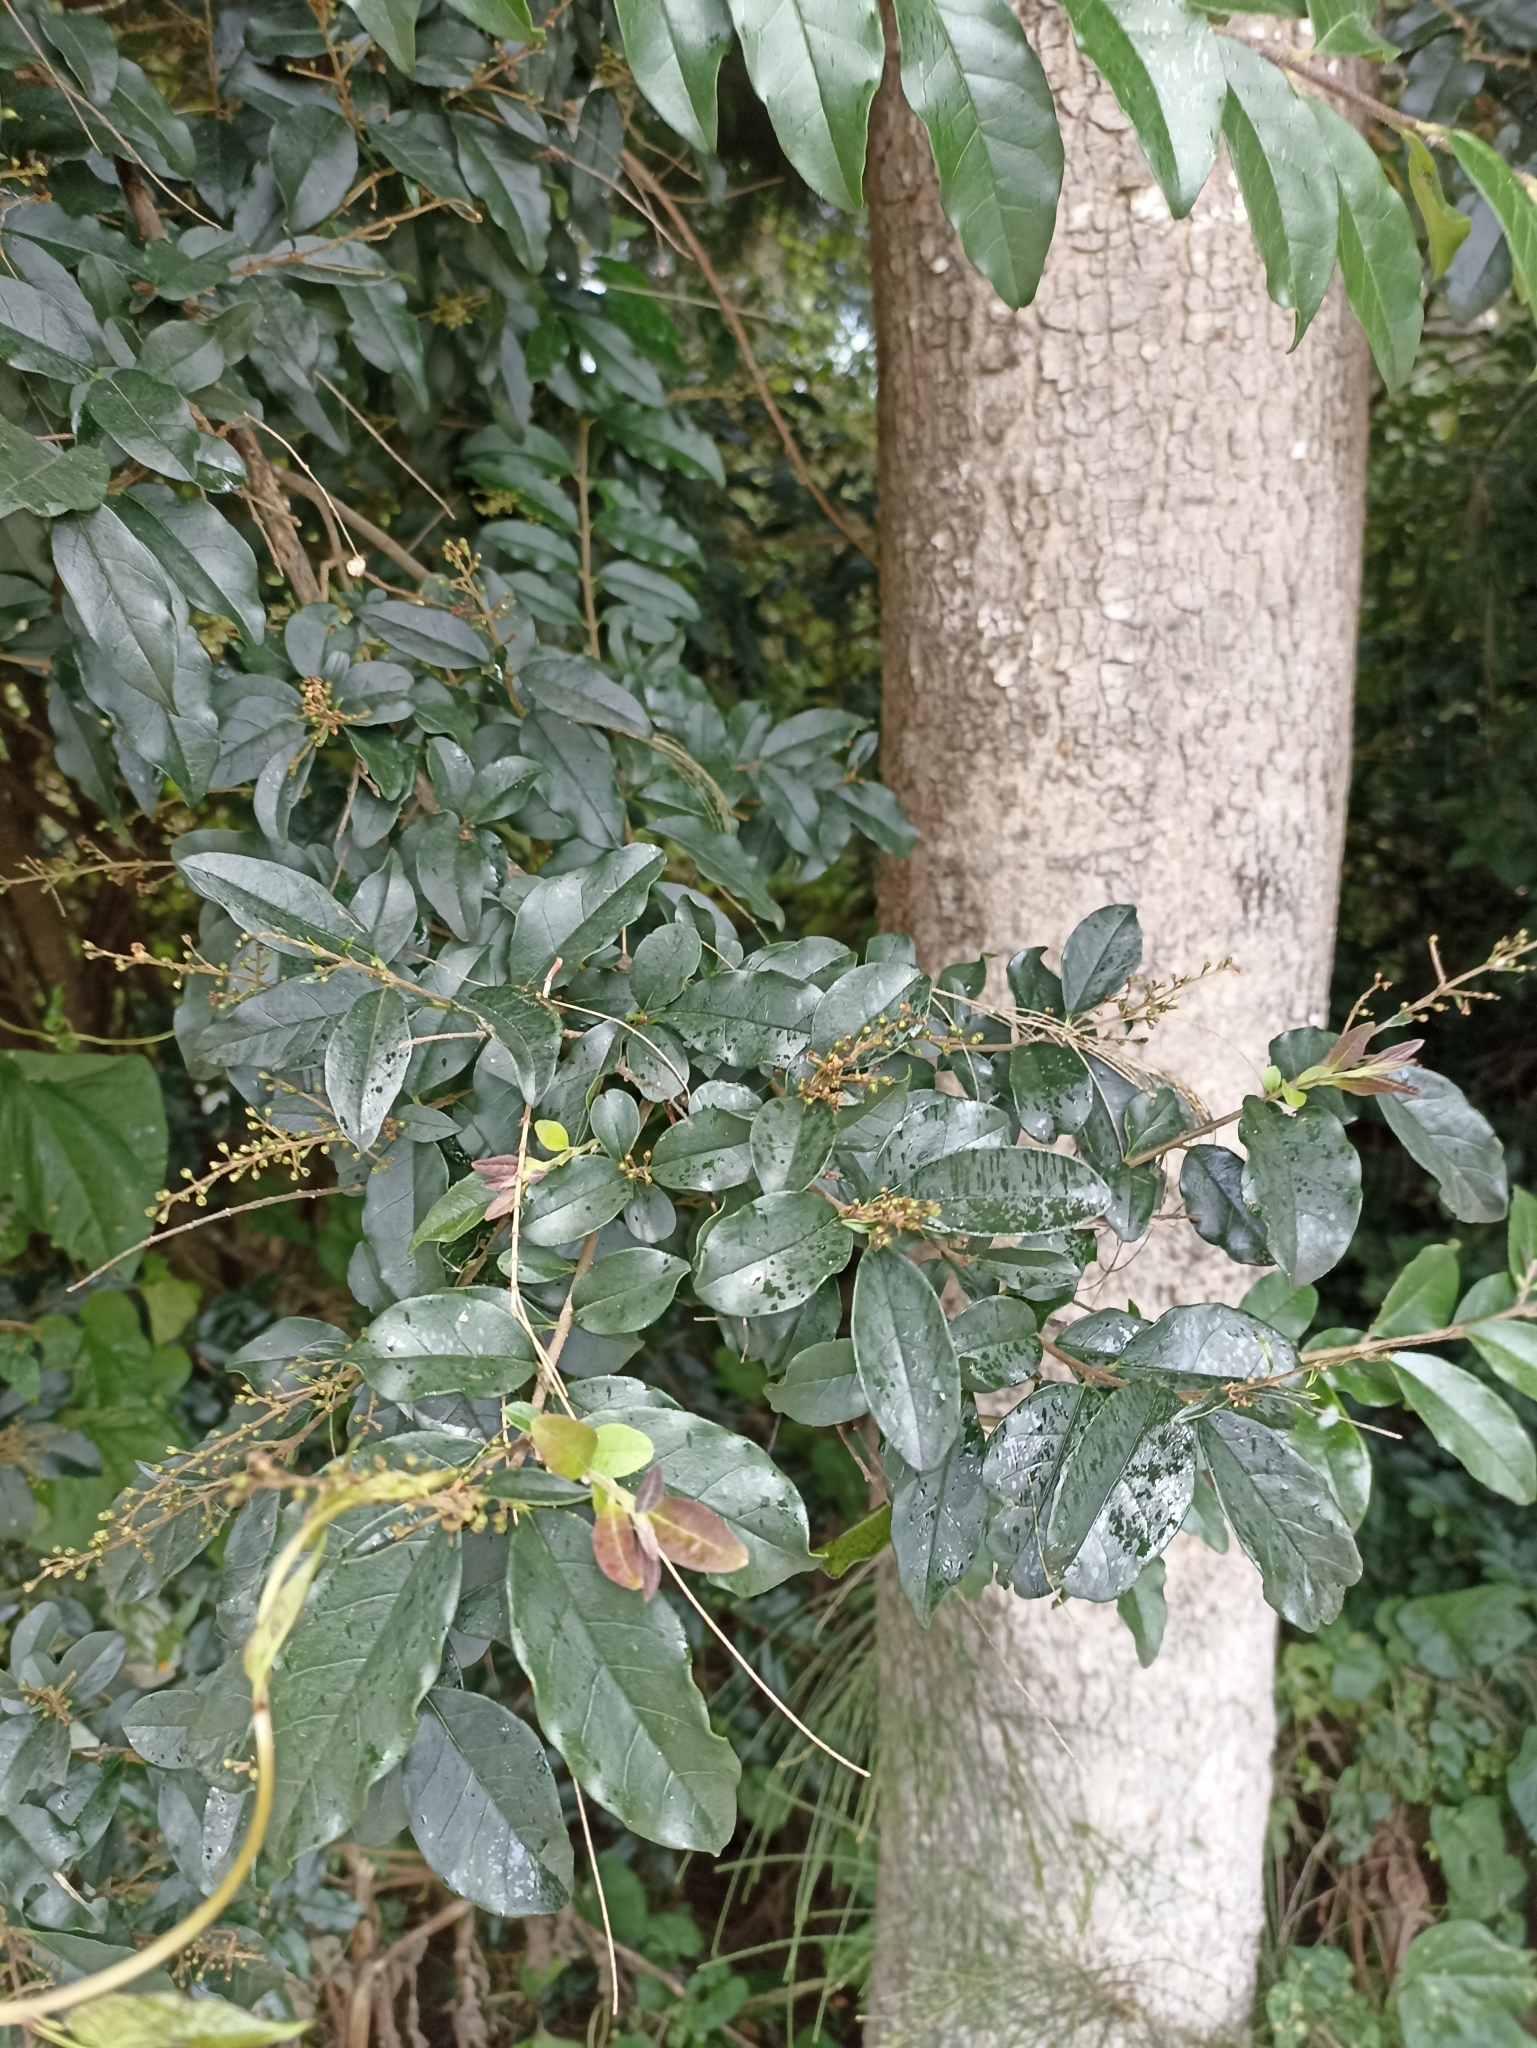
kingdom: Plantae
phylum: Tracheophyta
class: Magnoliopsida
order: Lamiales
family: Oleaceae
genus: Ligustrum
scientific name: Ligustrum ovalifolium
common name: California privet
